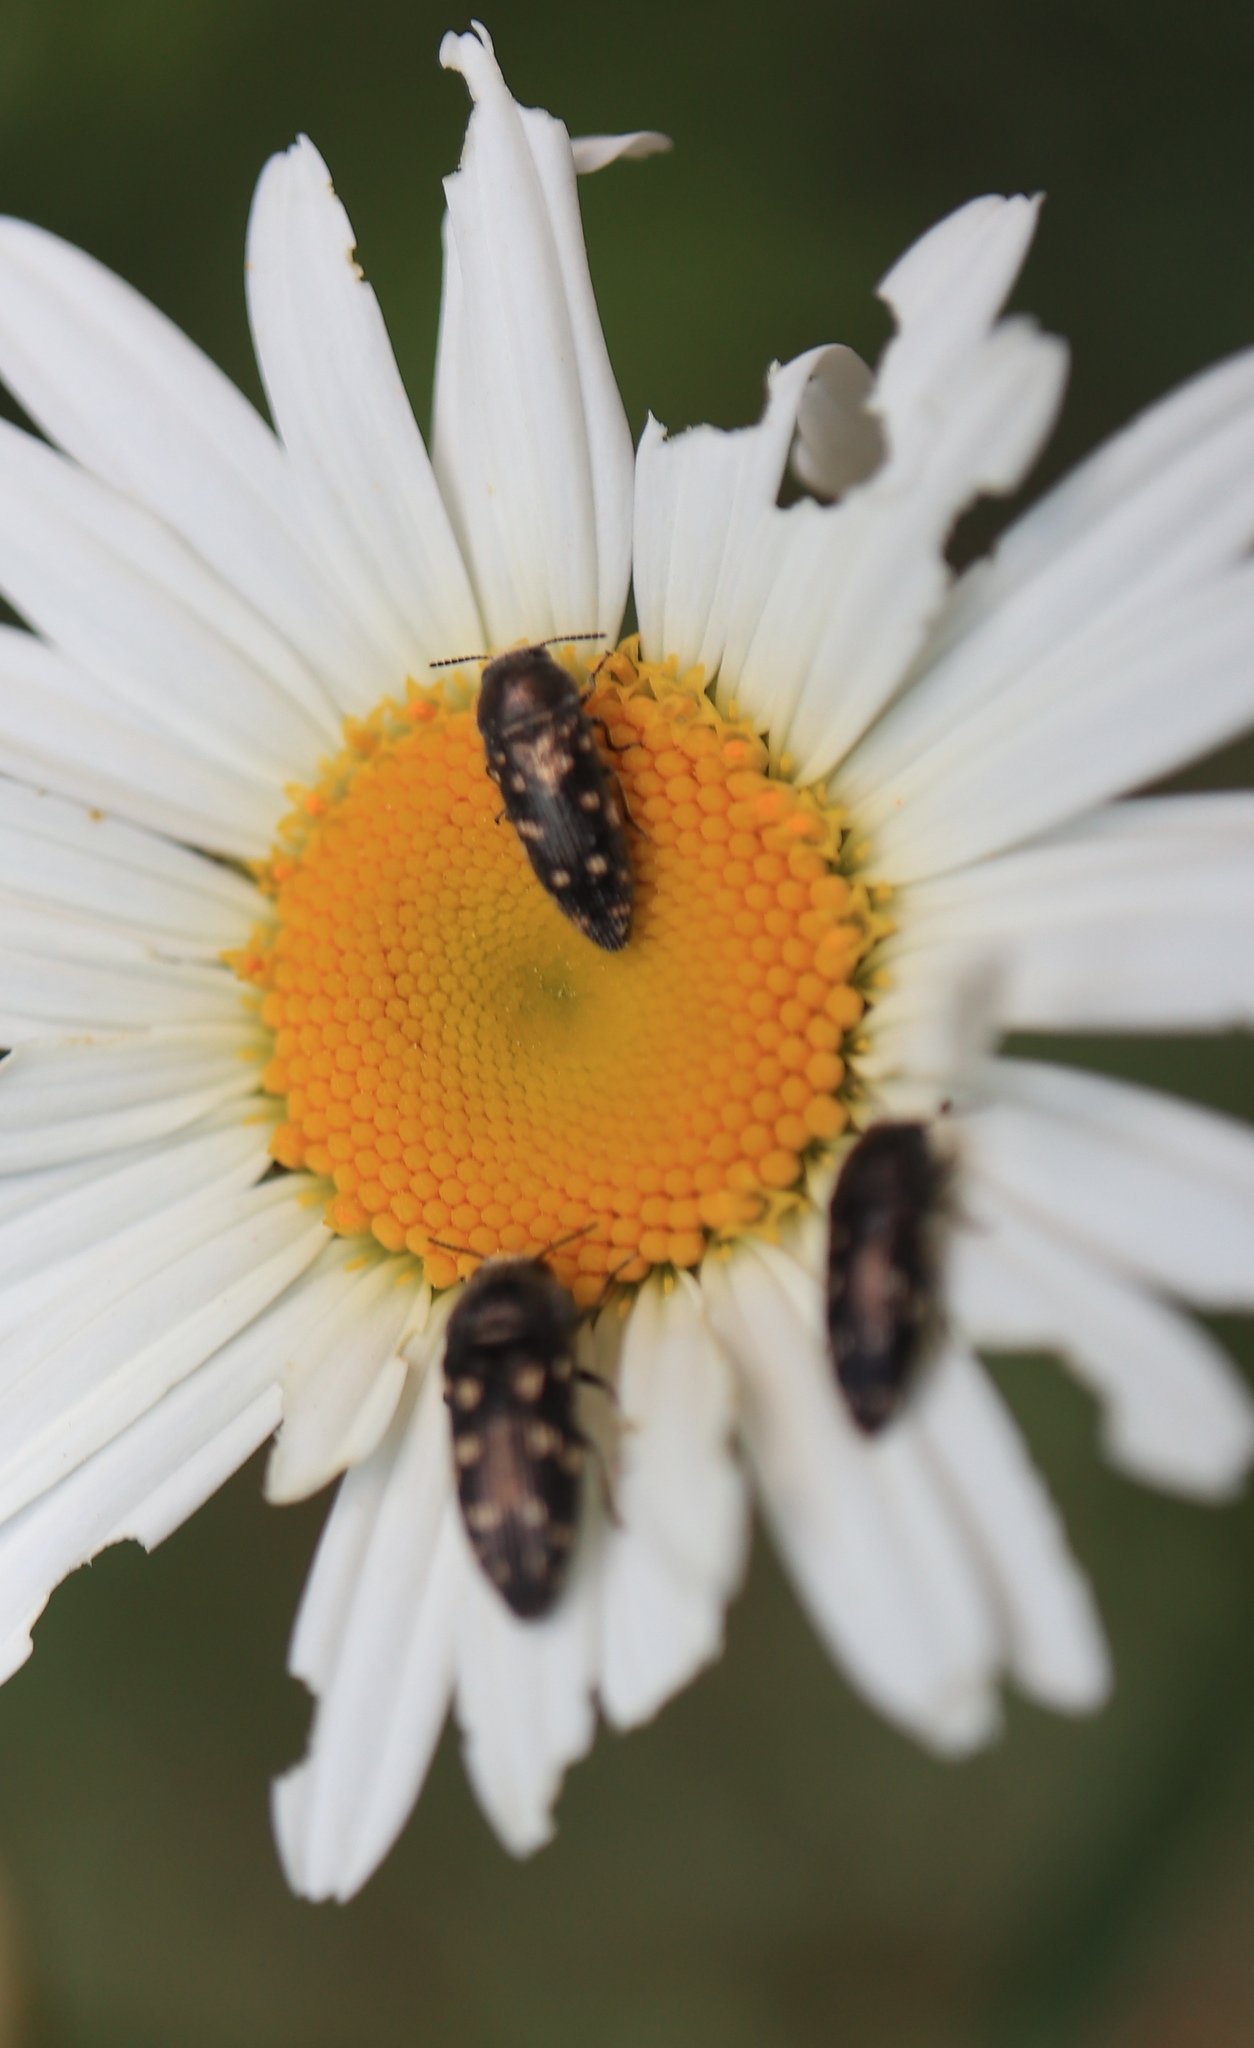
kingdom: Animalia
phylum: Arthropoda
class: Insecta
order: Coleoptera
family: Buprestidae
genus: Acmaeodera
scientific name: Acmaeodera tubulus
